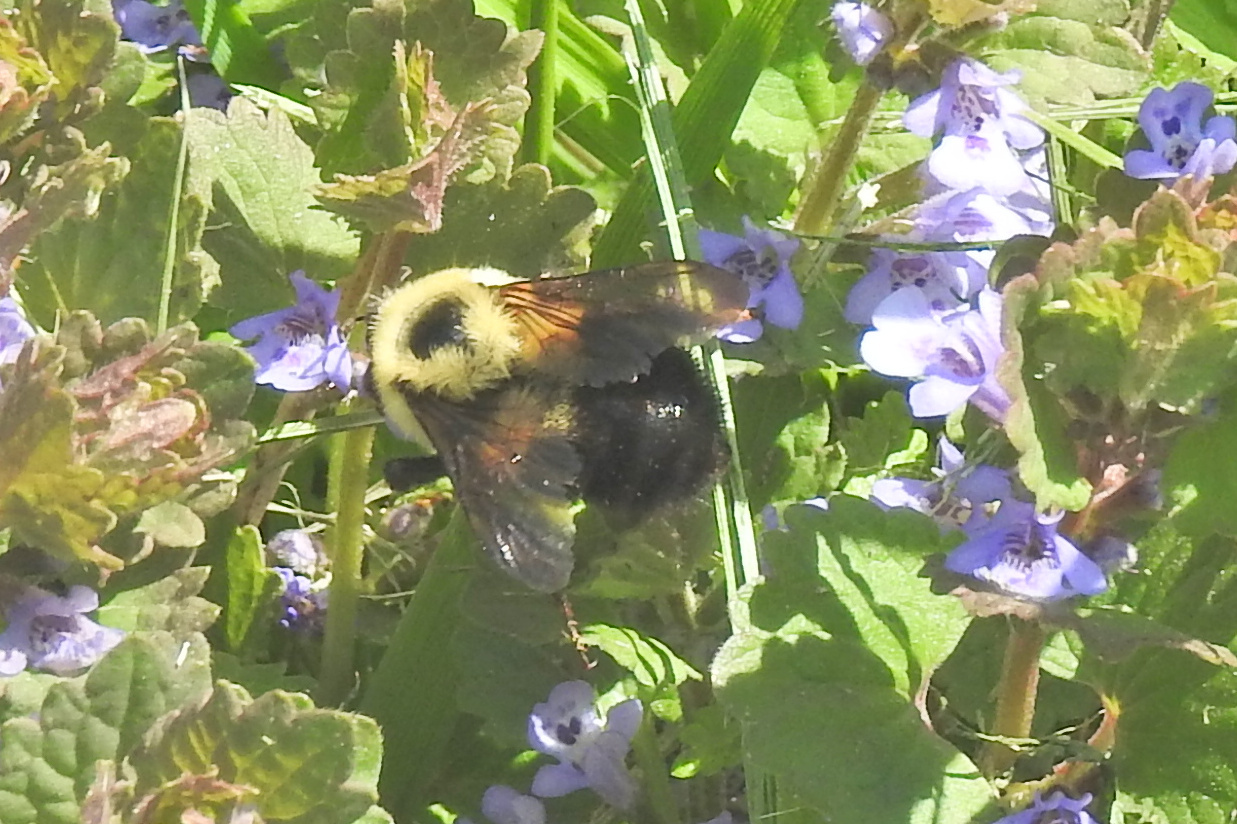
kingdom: Animalia
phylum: Arthropoda
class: Insecta
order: Hymenoptera
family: Apidae
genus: Bombus
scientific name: Bombus bimaculatus
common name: Two-spotted bumble bee
